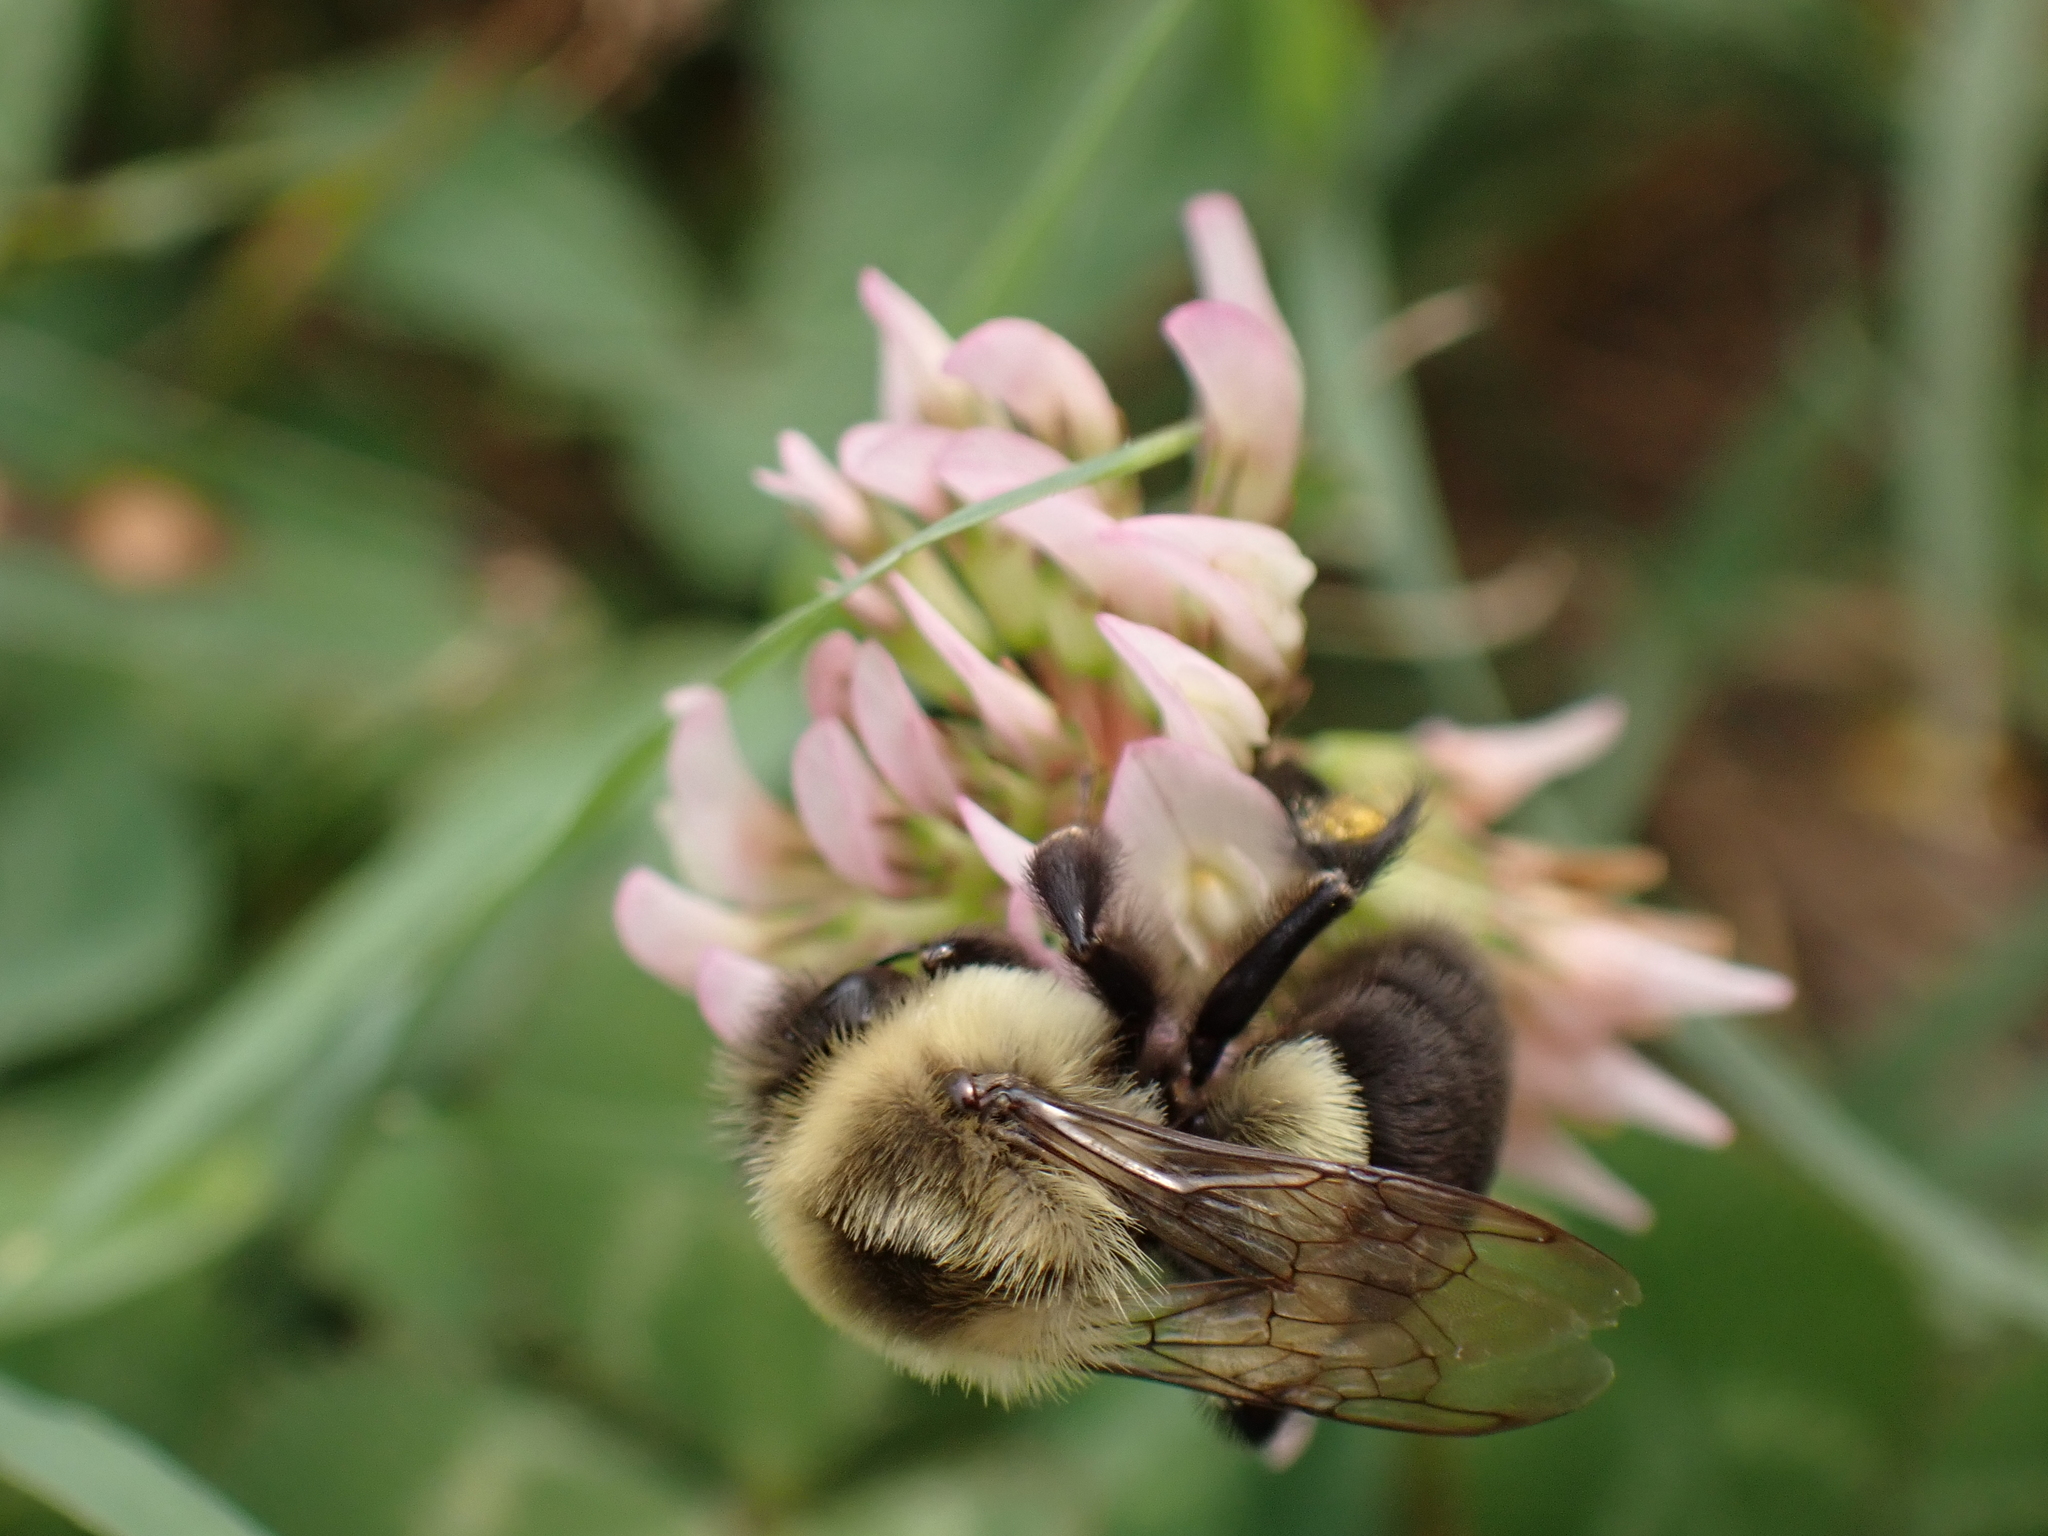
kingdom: Animalia
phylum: Arthropoda
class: Insecta
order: Hymenoptera
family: Apidae
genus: Bombus
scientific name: Bombus impatiens
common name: Common eastern bumble bee
